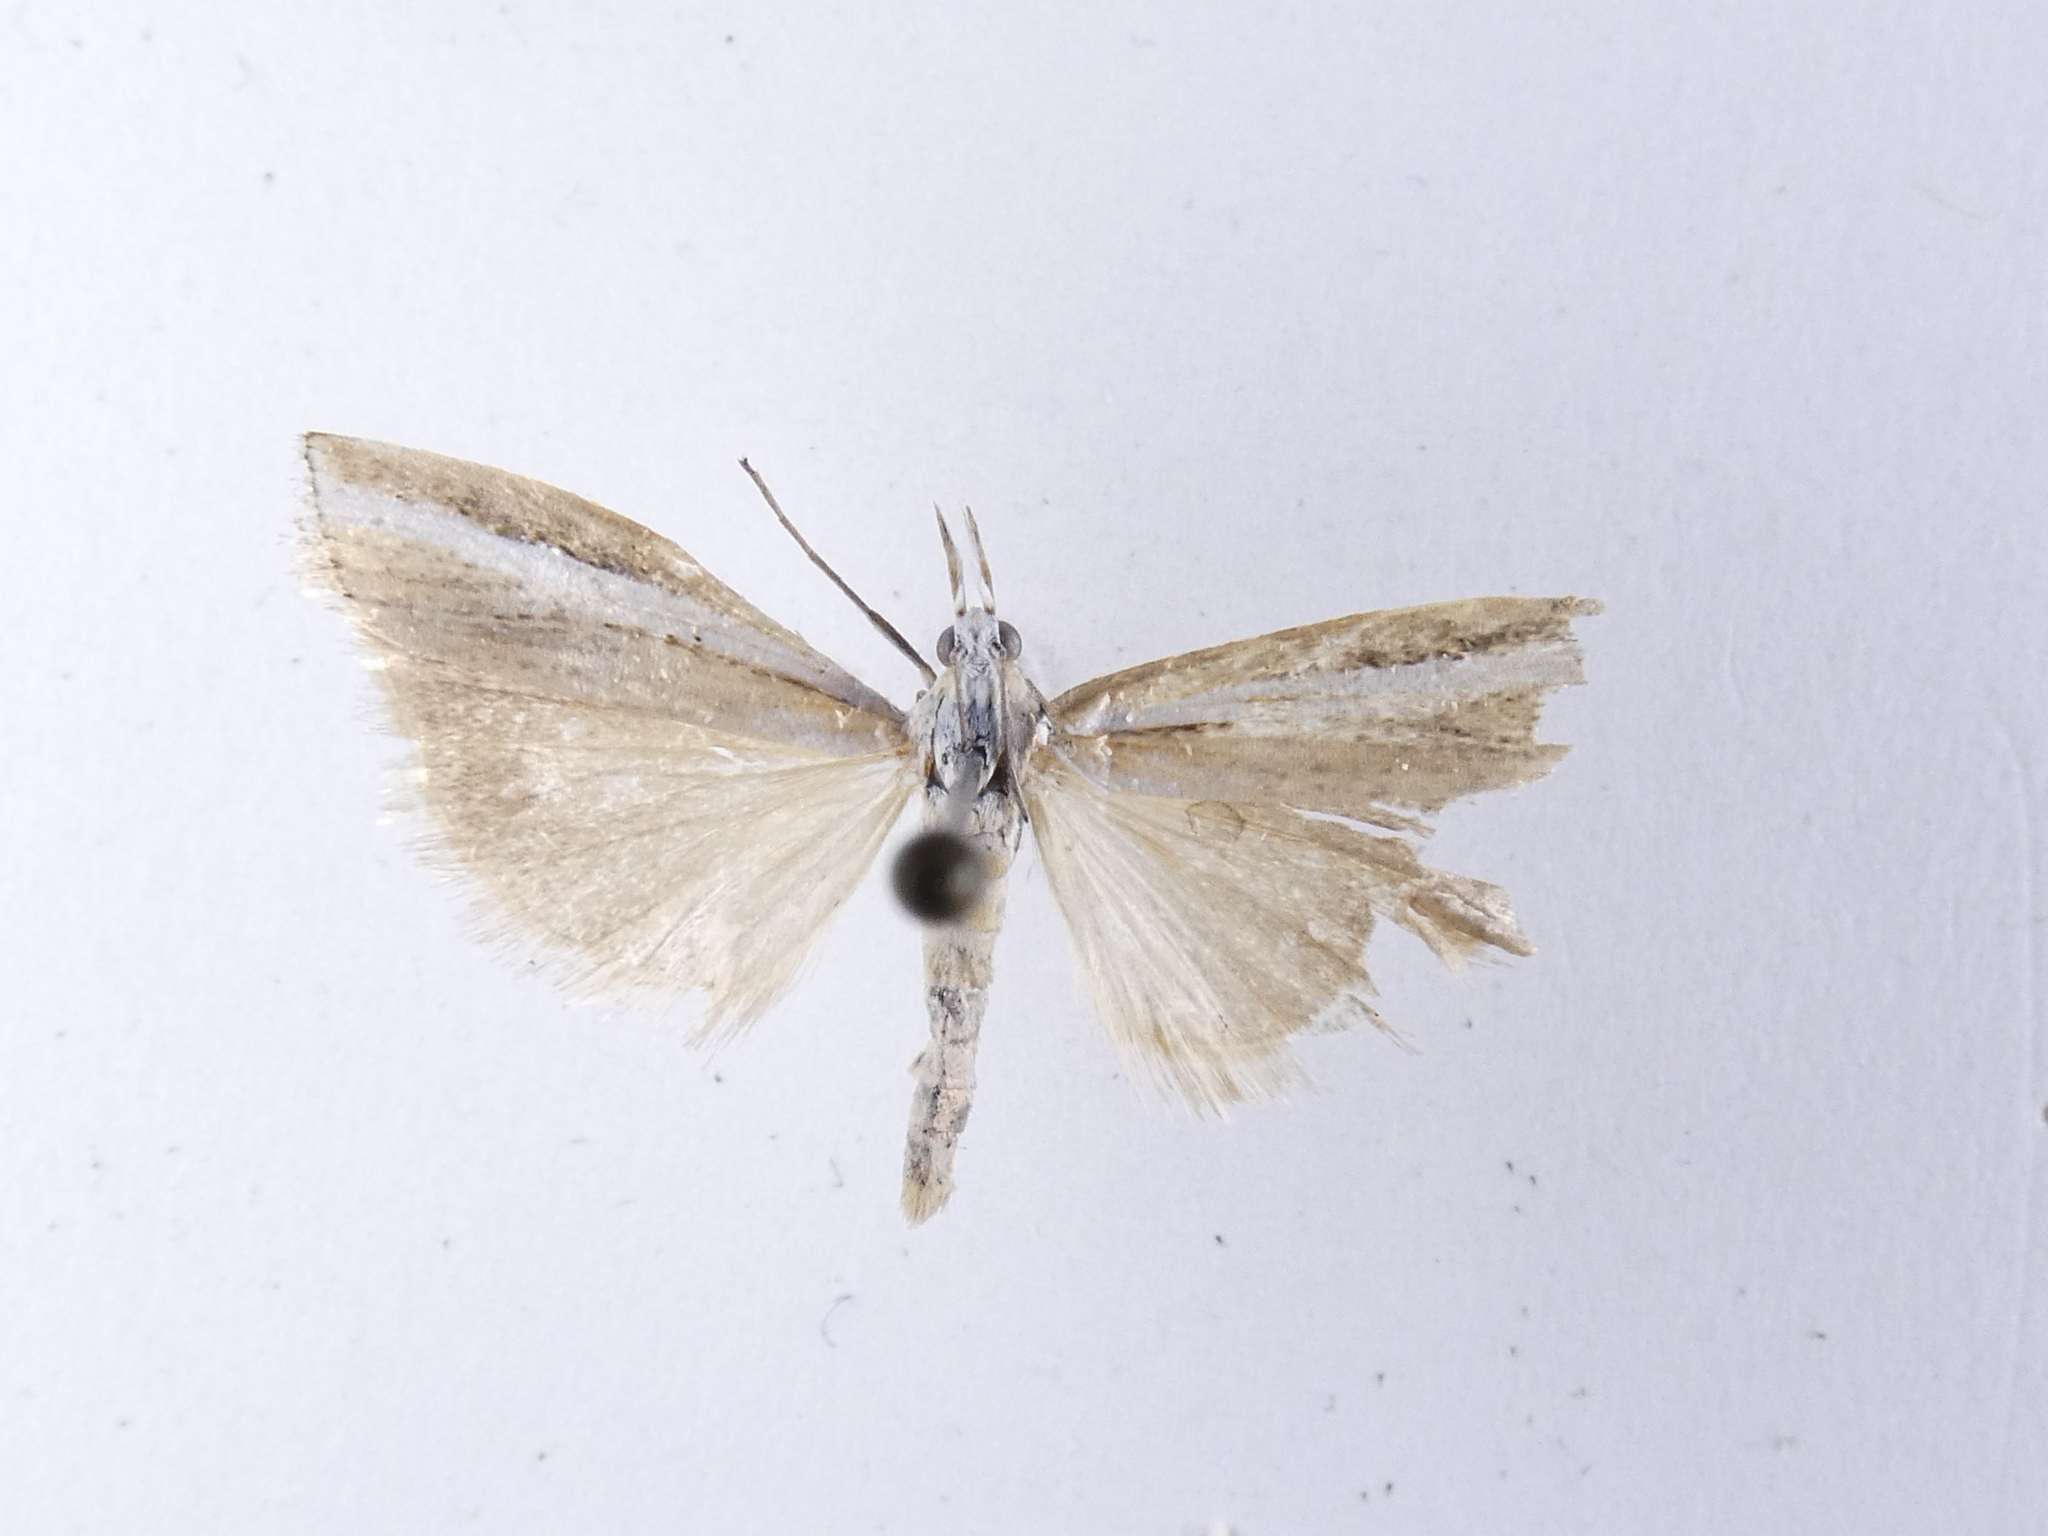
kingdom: Animalia
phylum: Arthropoda
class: Insecta
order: Lepidoptera
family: Crambidae
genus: Orocrambus
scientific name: Orocrambus vittellus
